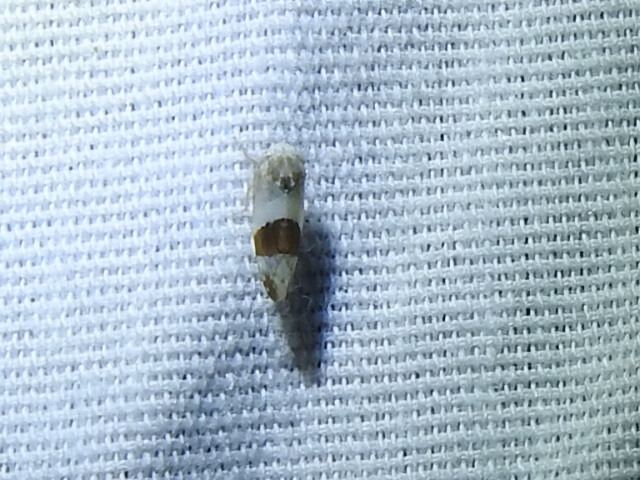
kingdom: Animalia
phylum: Arthropoda
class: Insecta
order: Hemiptera
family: Cicadellidae
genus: Norvellina
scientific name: Norvellina seminuda
